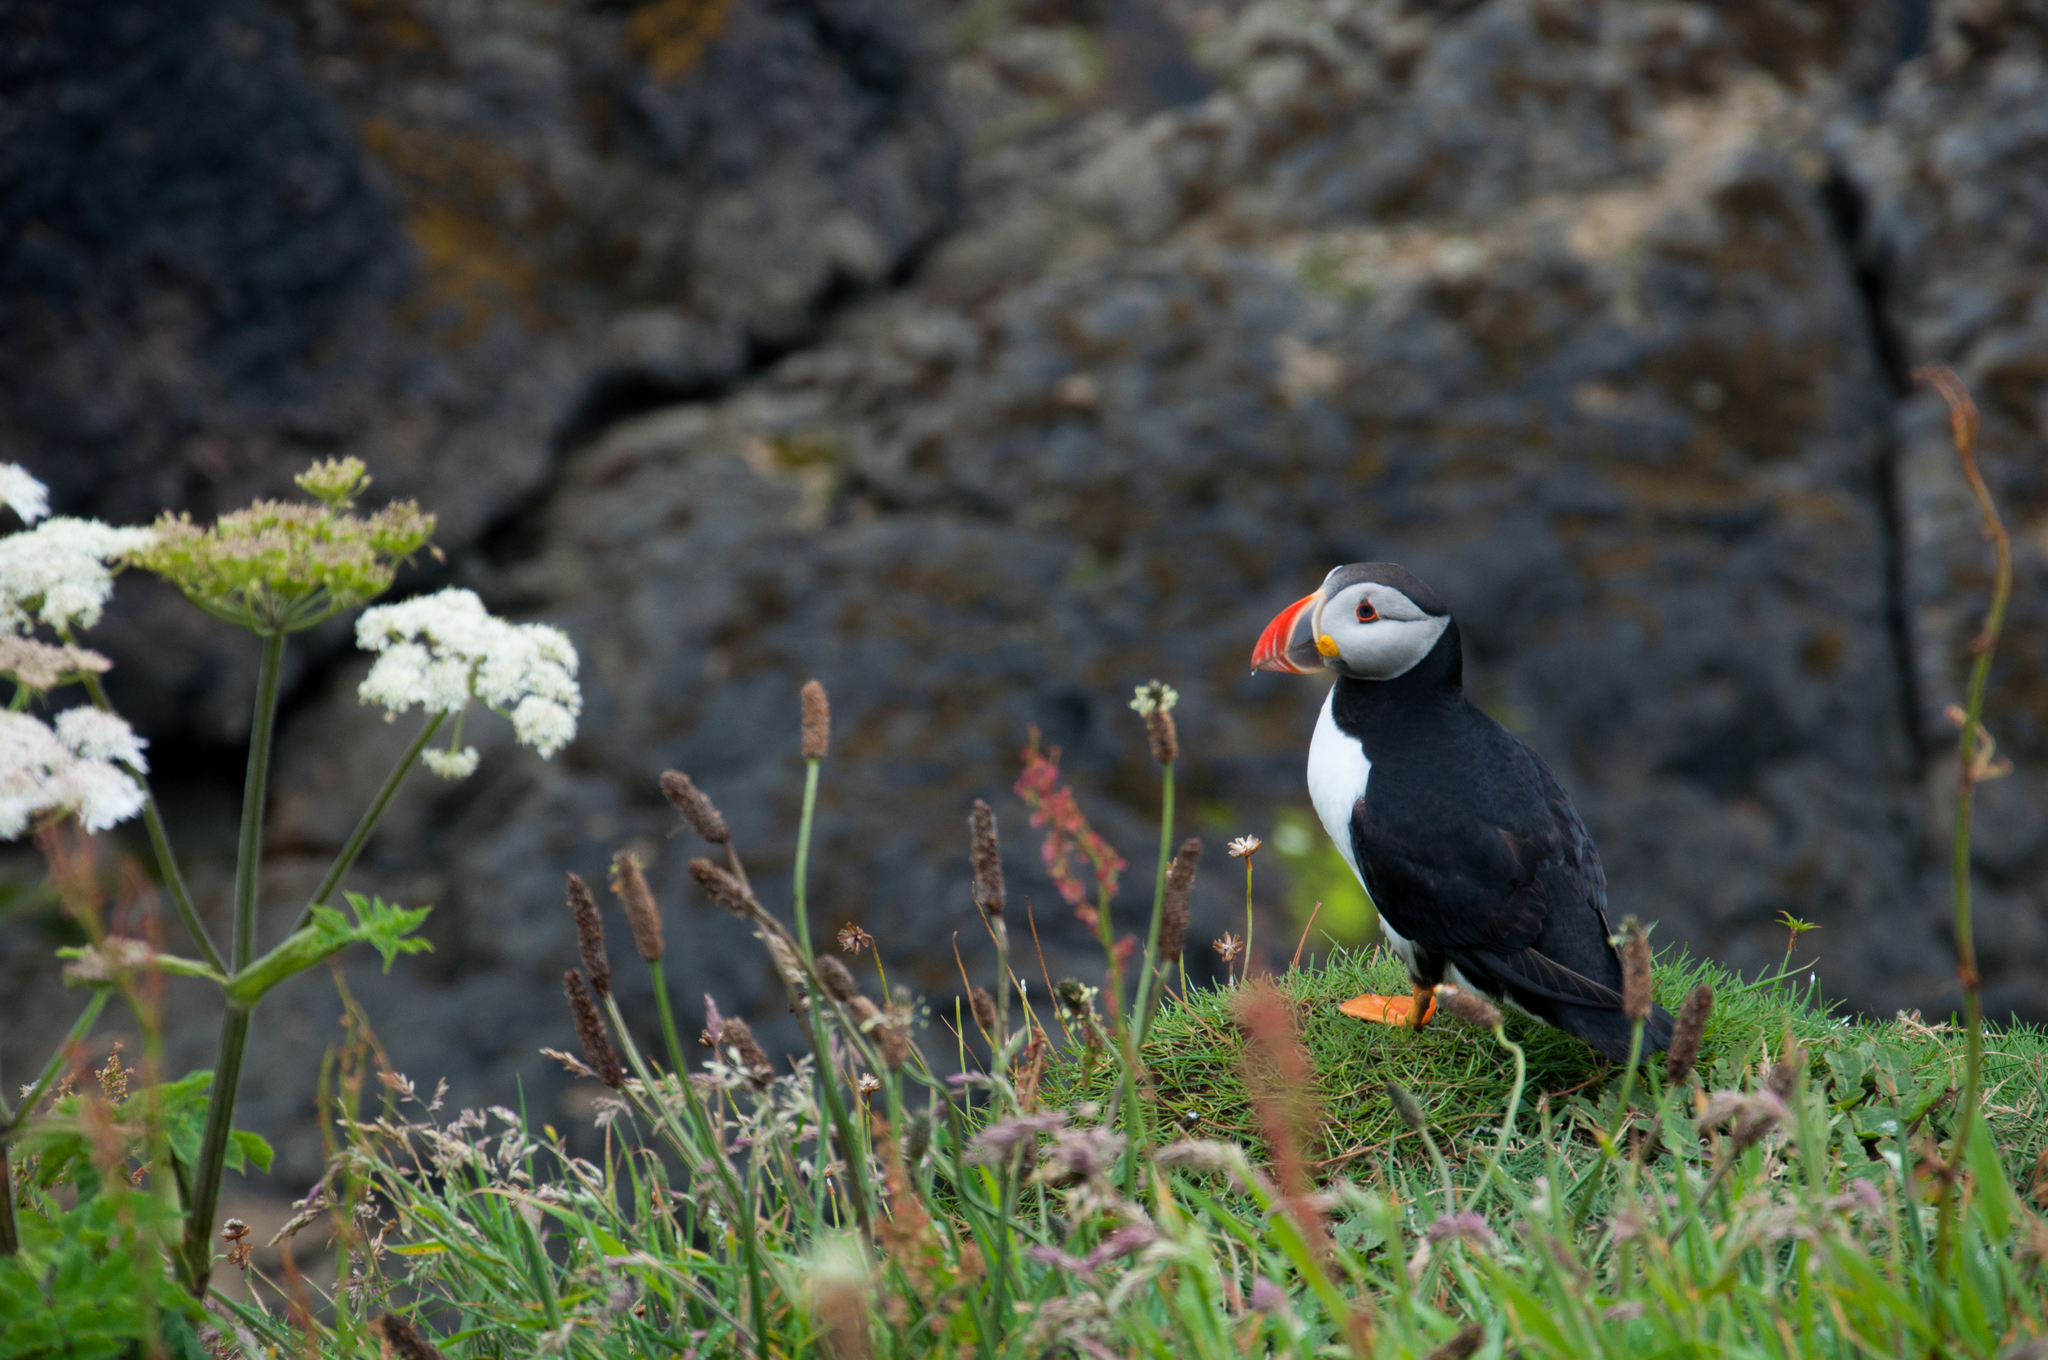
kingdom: Animalia
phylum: Chordata
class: Aves
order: Charadriiformes
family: Alcidae
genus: Fratercula
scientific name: Fratercula arctica
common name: Atlantic puffin
